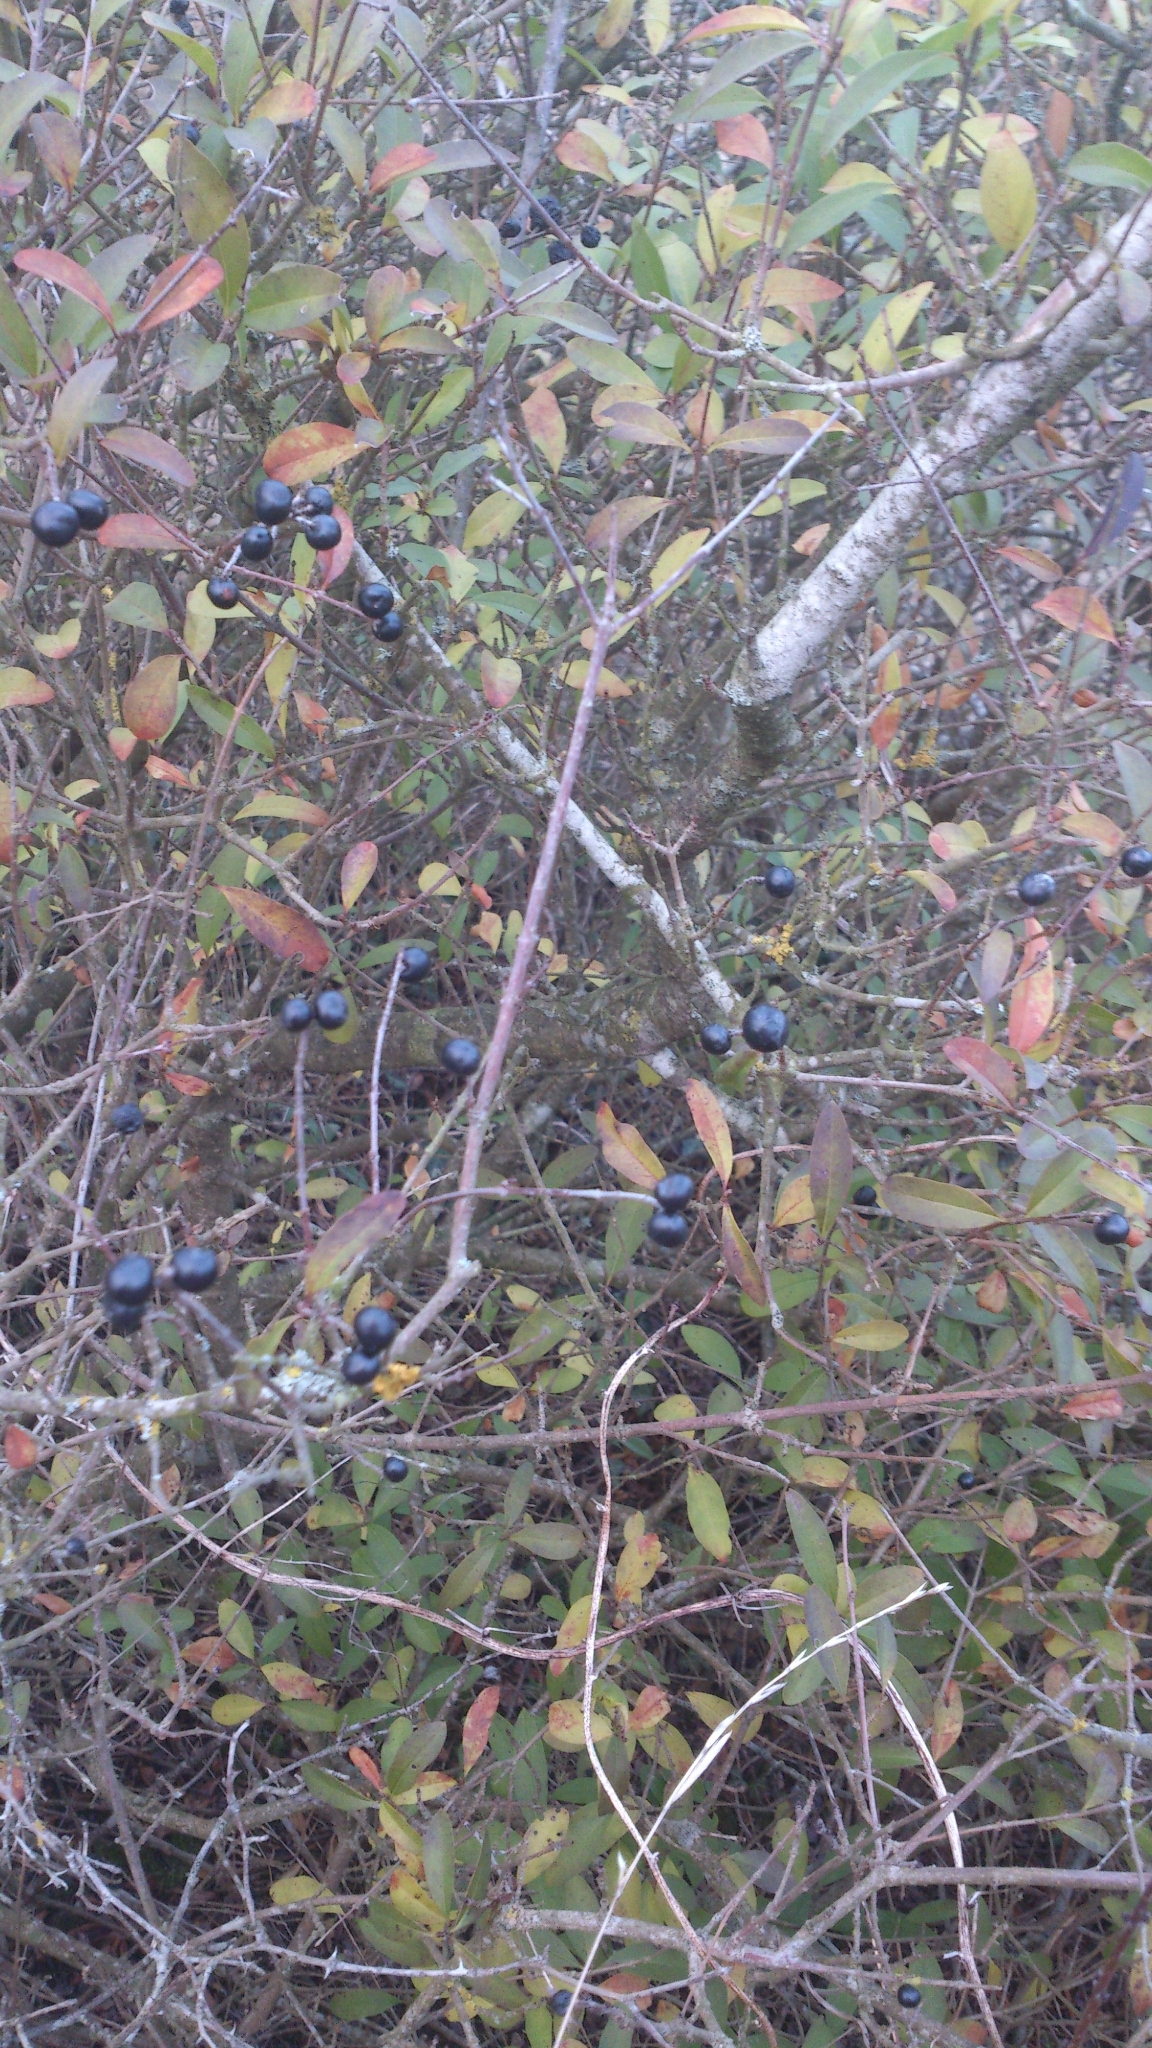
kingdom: Plantae
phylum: Tracheophyta
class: Magnoliopsida
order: Lamiales
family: Oleaceae
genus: Ligustrum
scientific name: Ligustrum vulgare
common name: Wild privet
